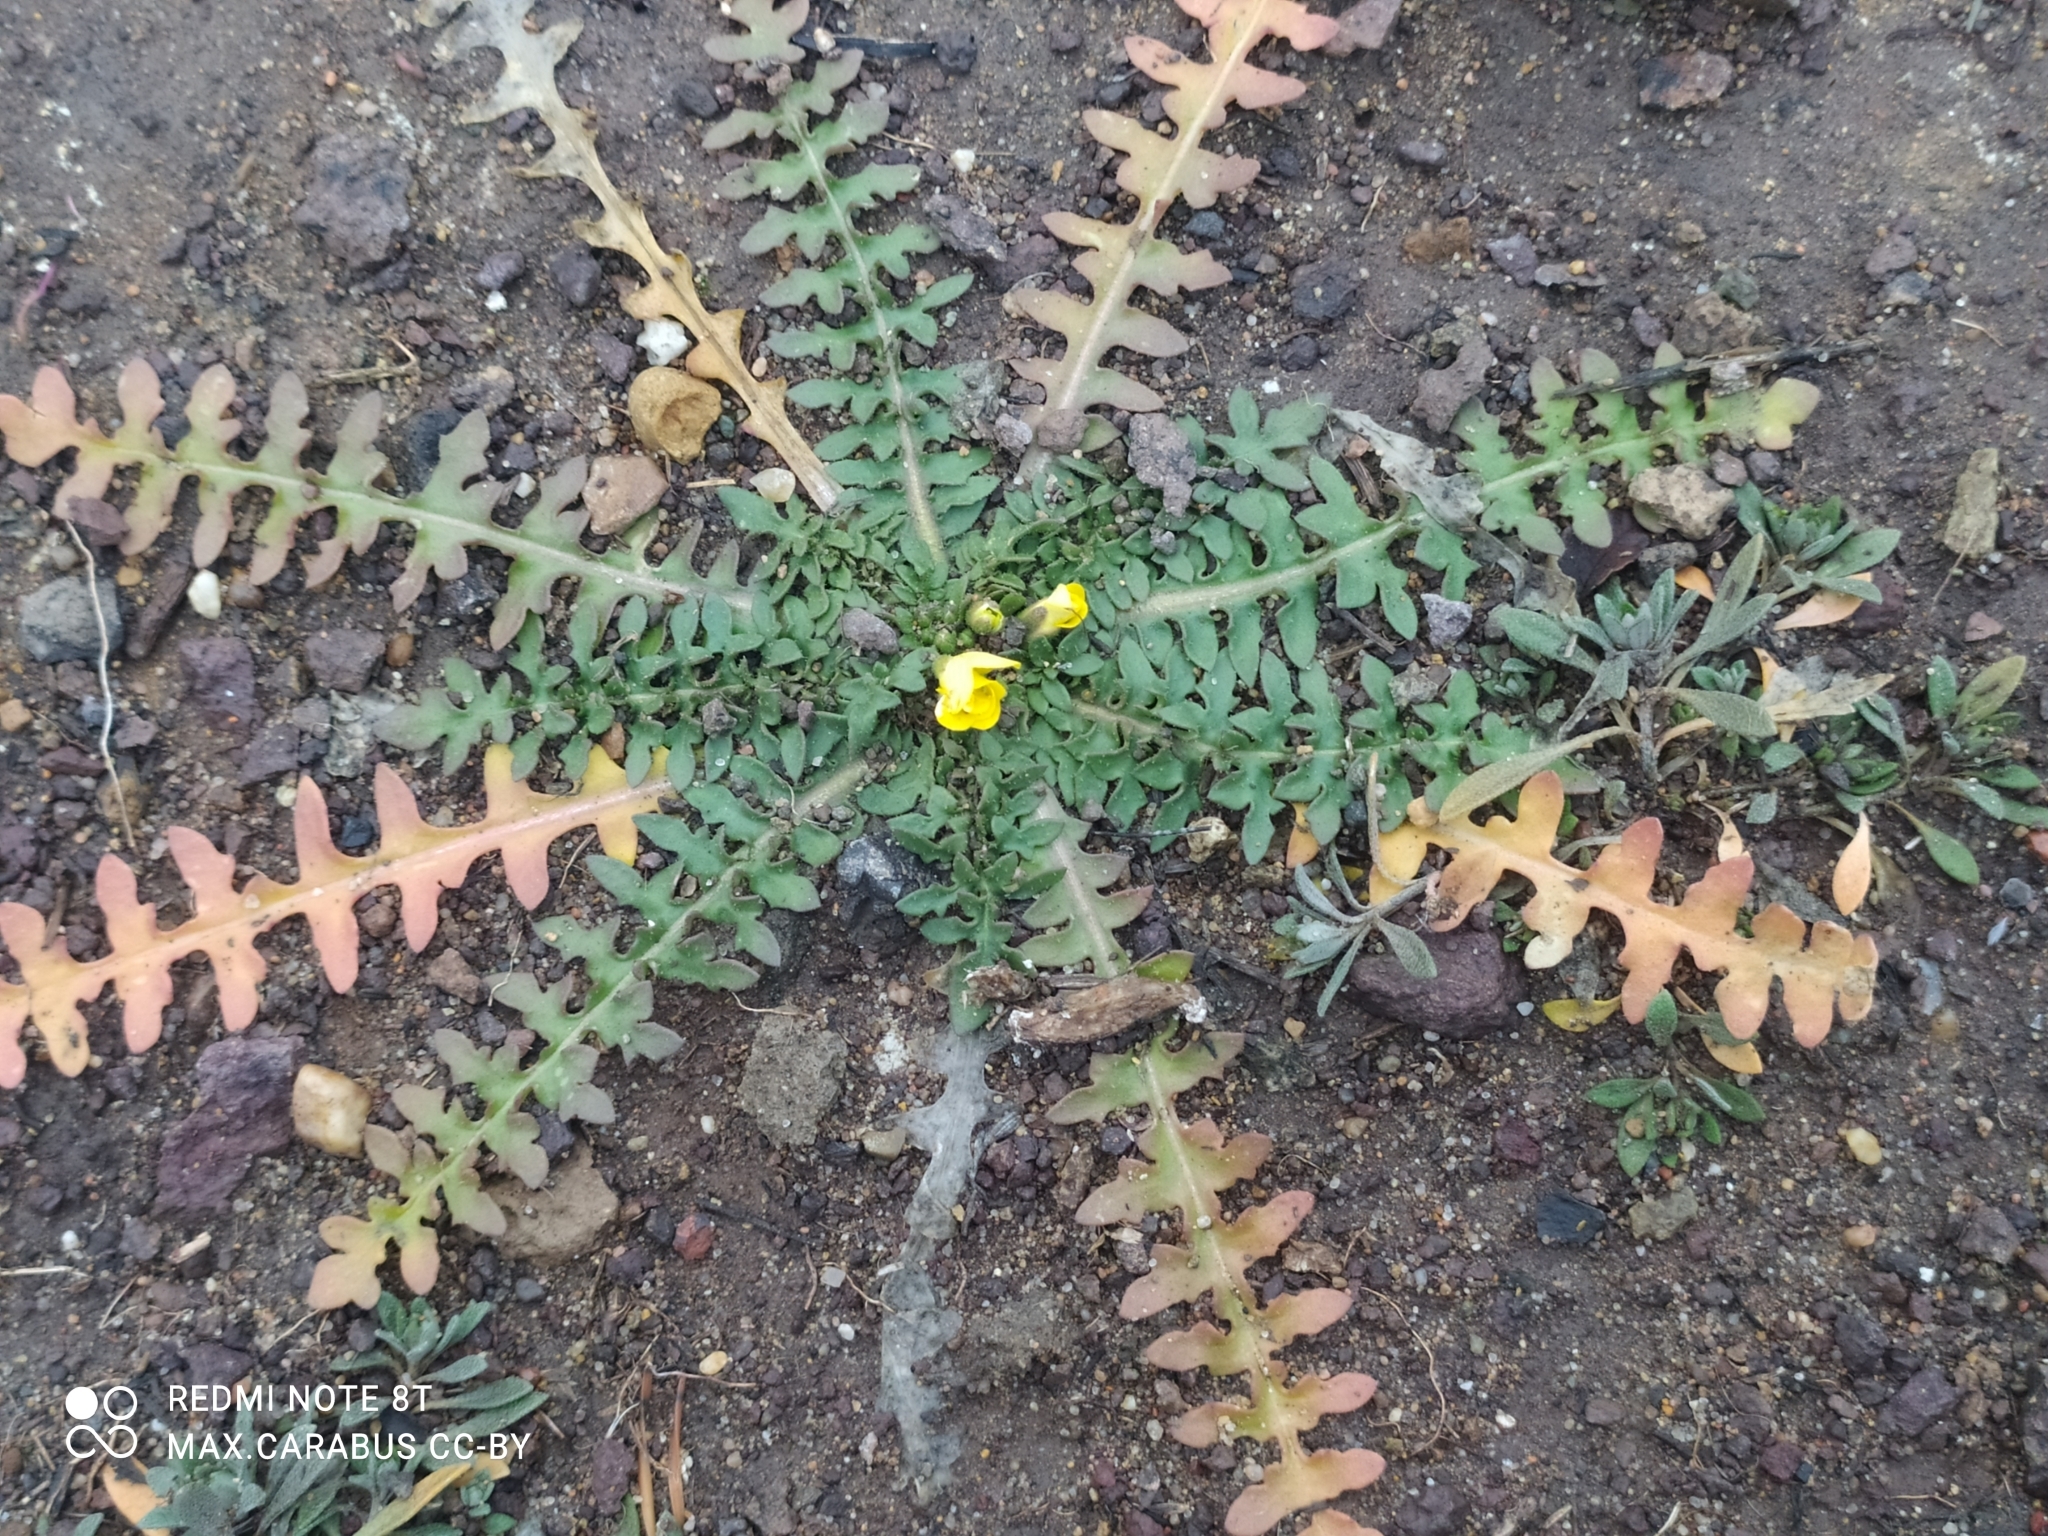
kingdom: Plantae
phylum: Tracheophyta
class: Magnoliopsida
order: Brassicales
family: Brassicaceae
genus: Chorispora
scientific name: Chorispora sibirica
